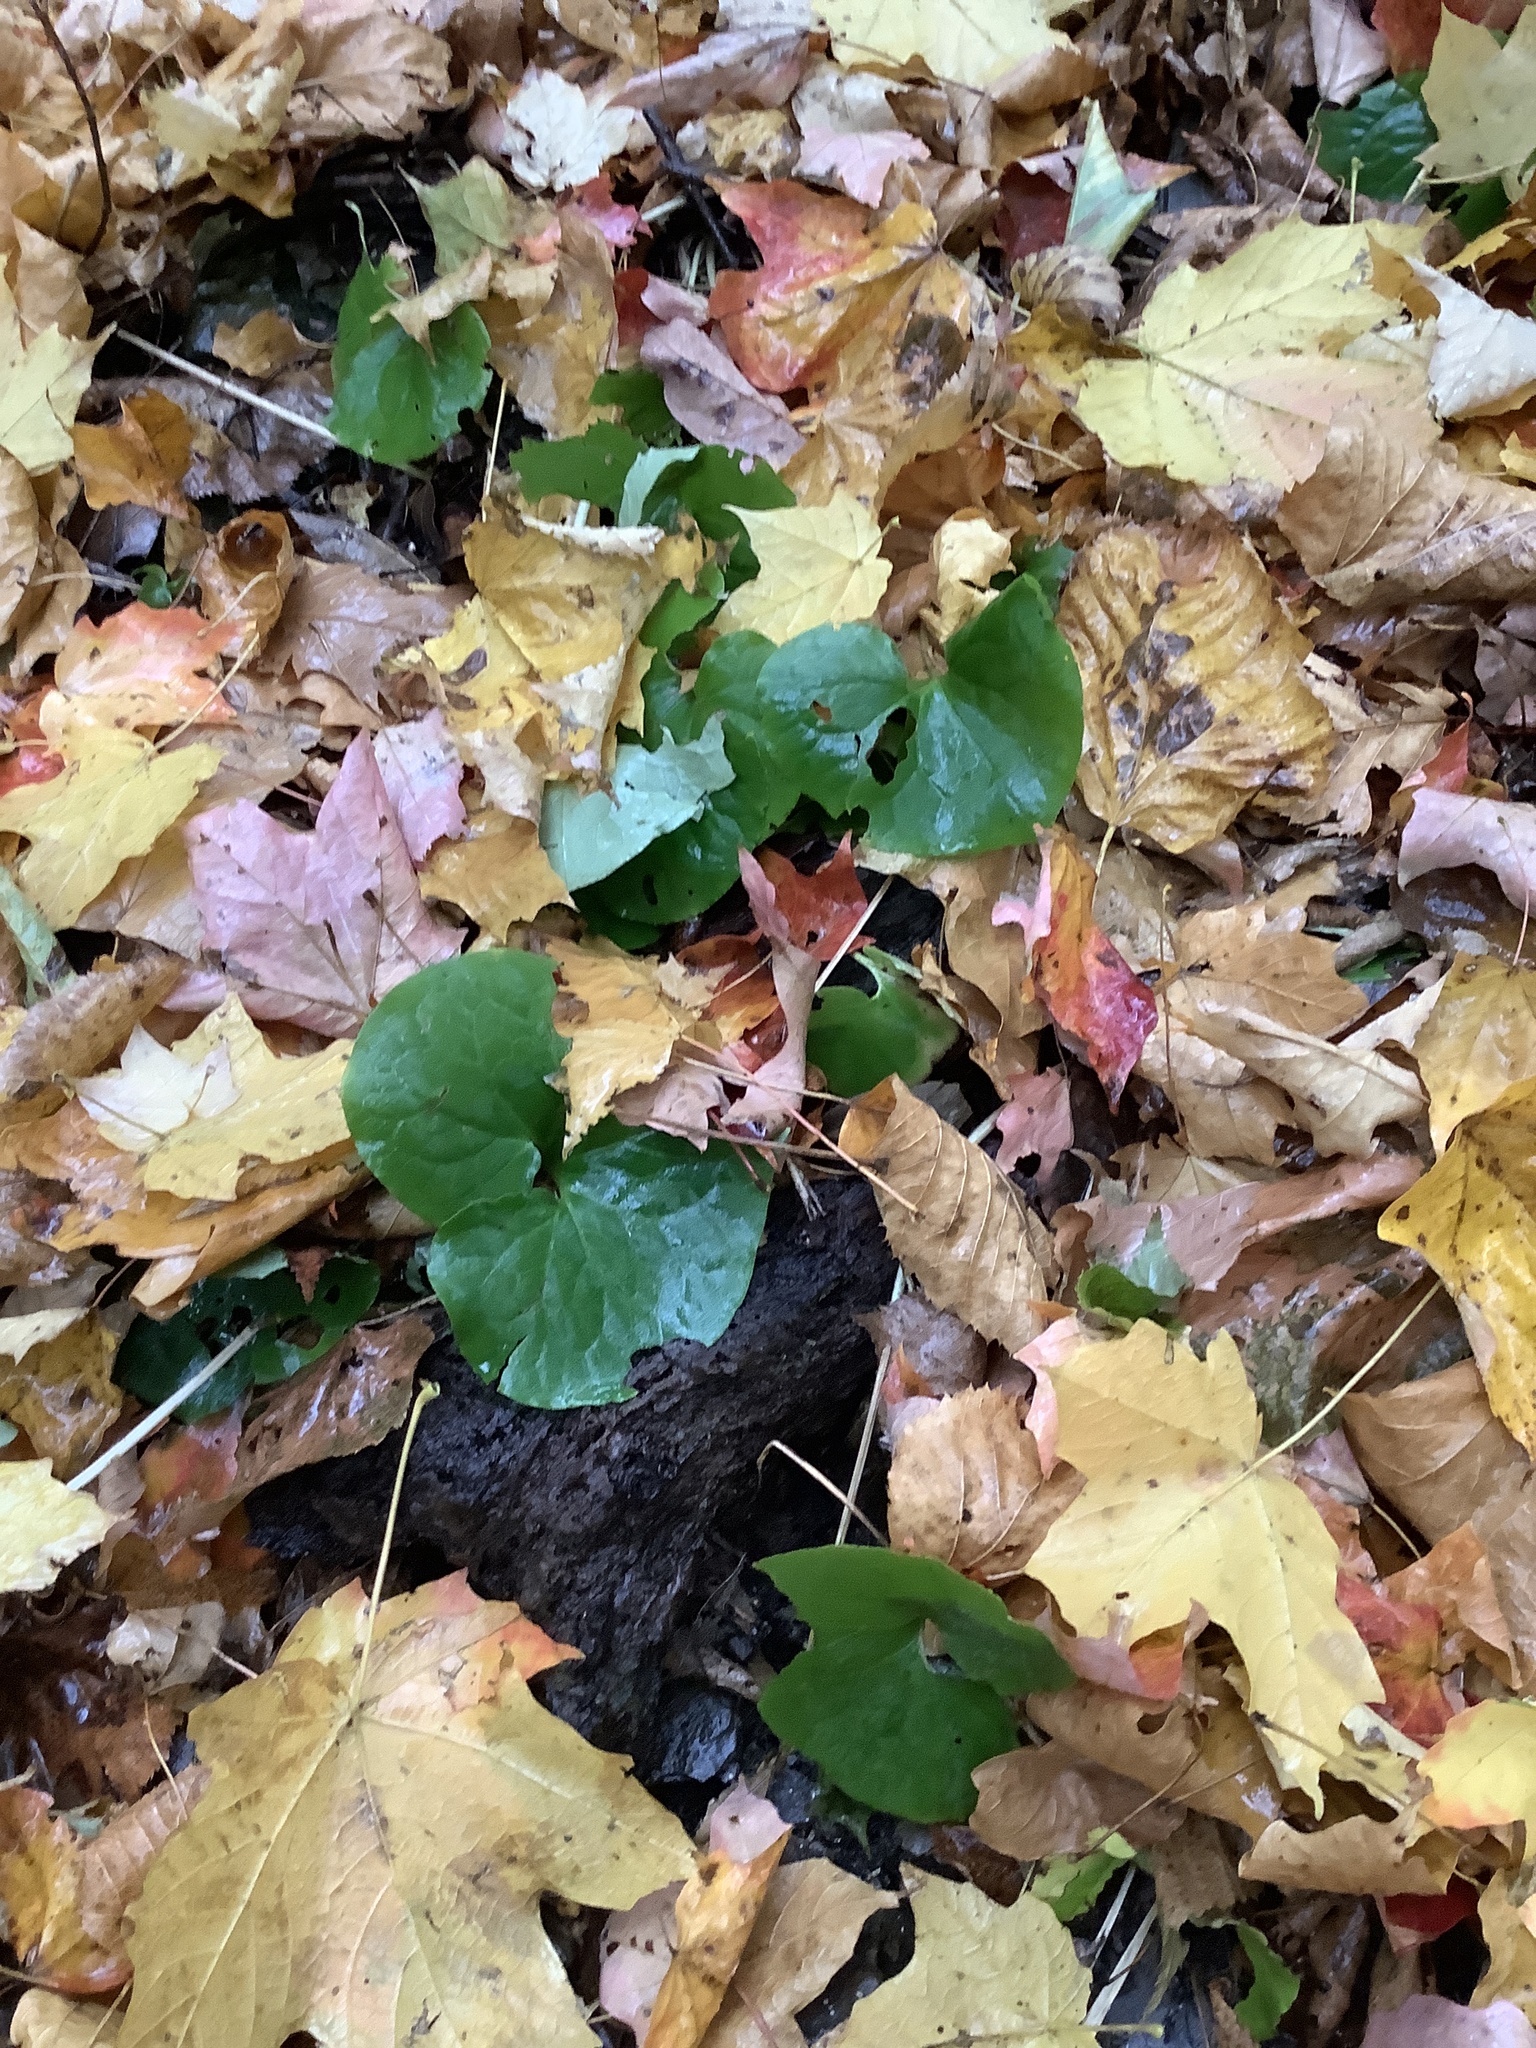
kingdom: Plantae
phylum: Tracheophyta
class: Magnoliopsida
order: Piperales
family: Aristolochiaceae
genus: Asarum
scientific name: Asarum canadense
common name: Wild ginger
